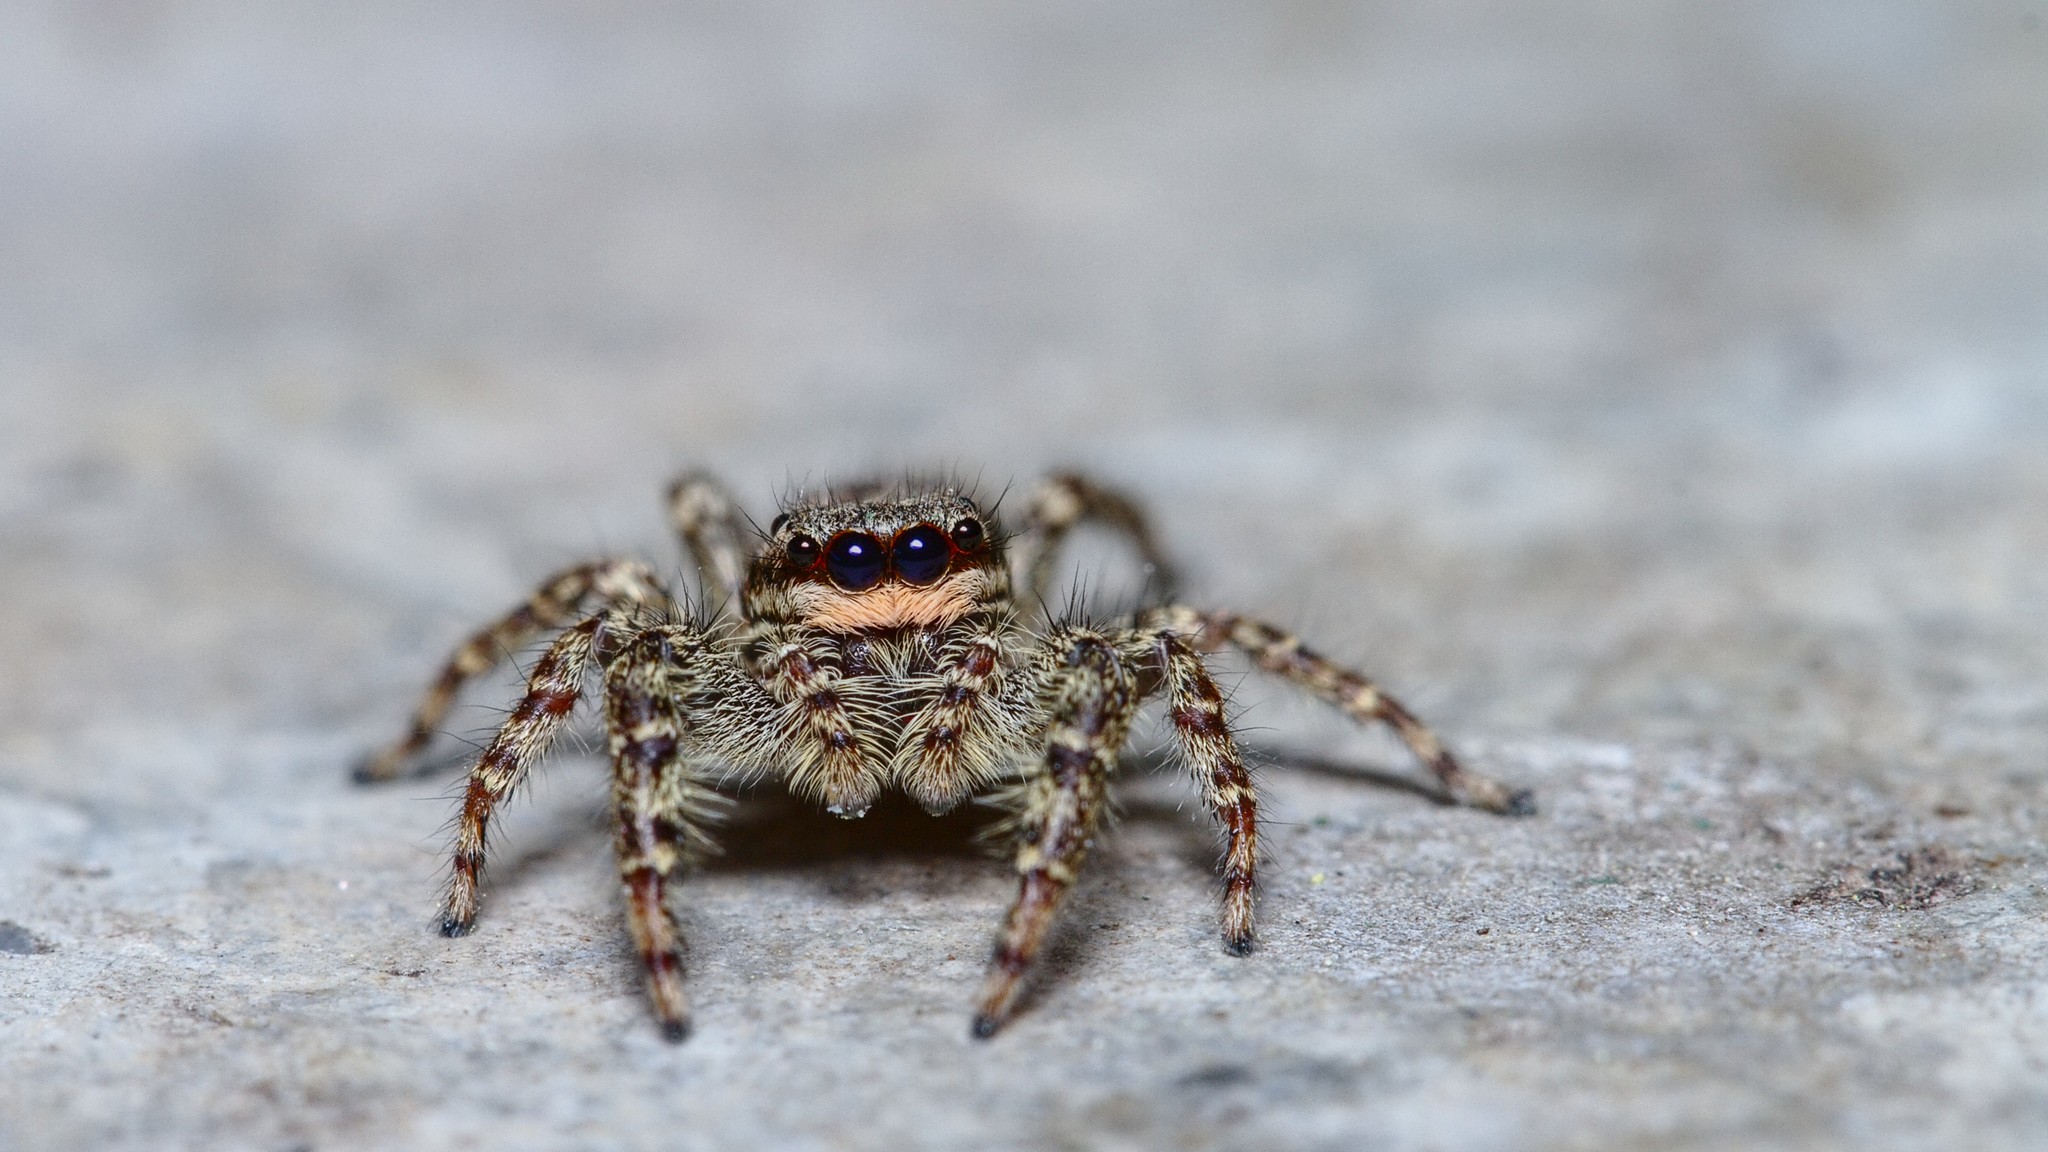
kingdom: Animalia
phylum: Arthropoda
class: Arachnida
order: Araneae
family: Salticidae
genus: Marpissa
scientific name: Marpissa muscosa
